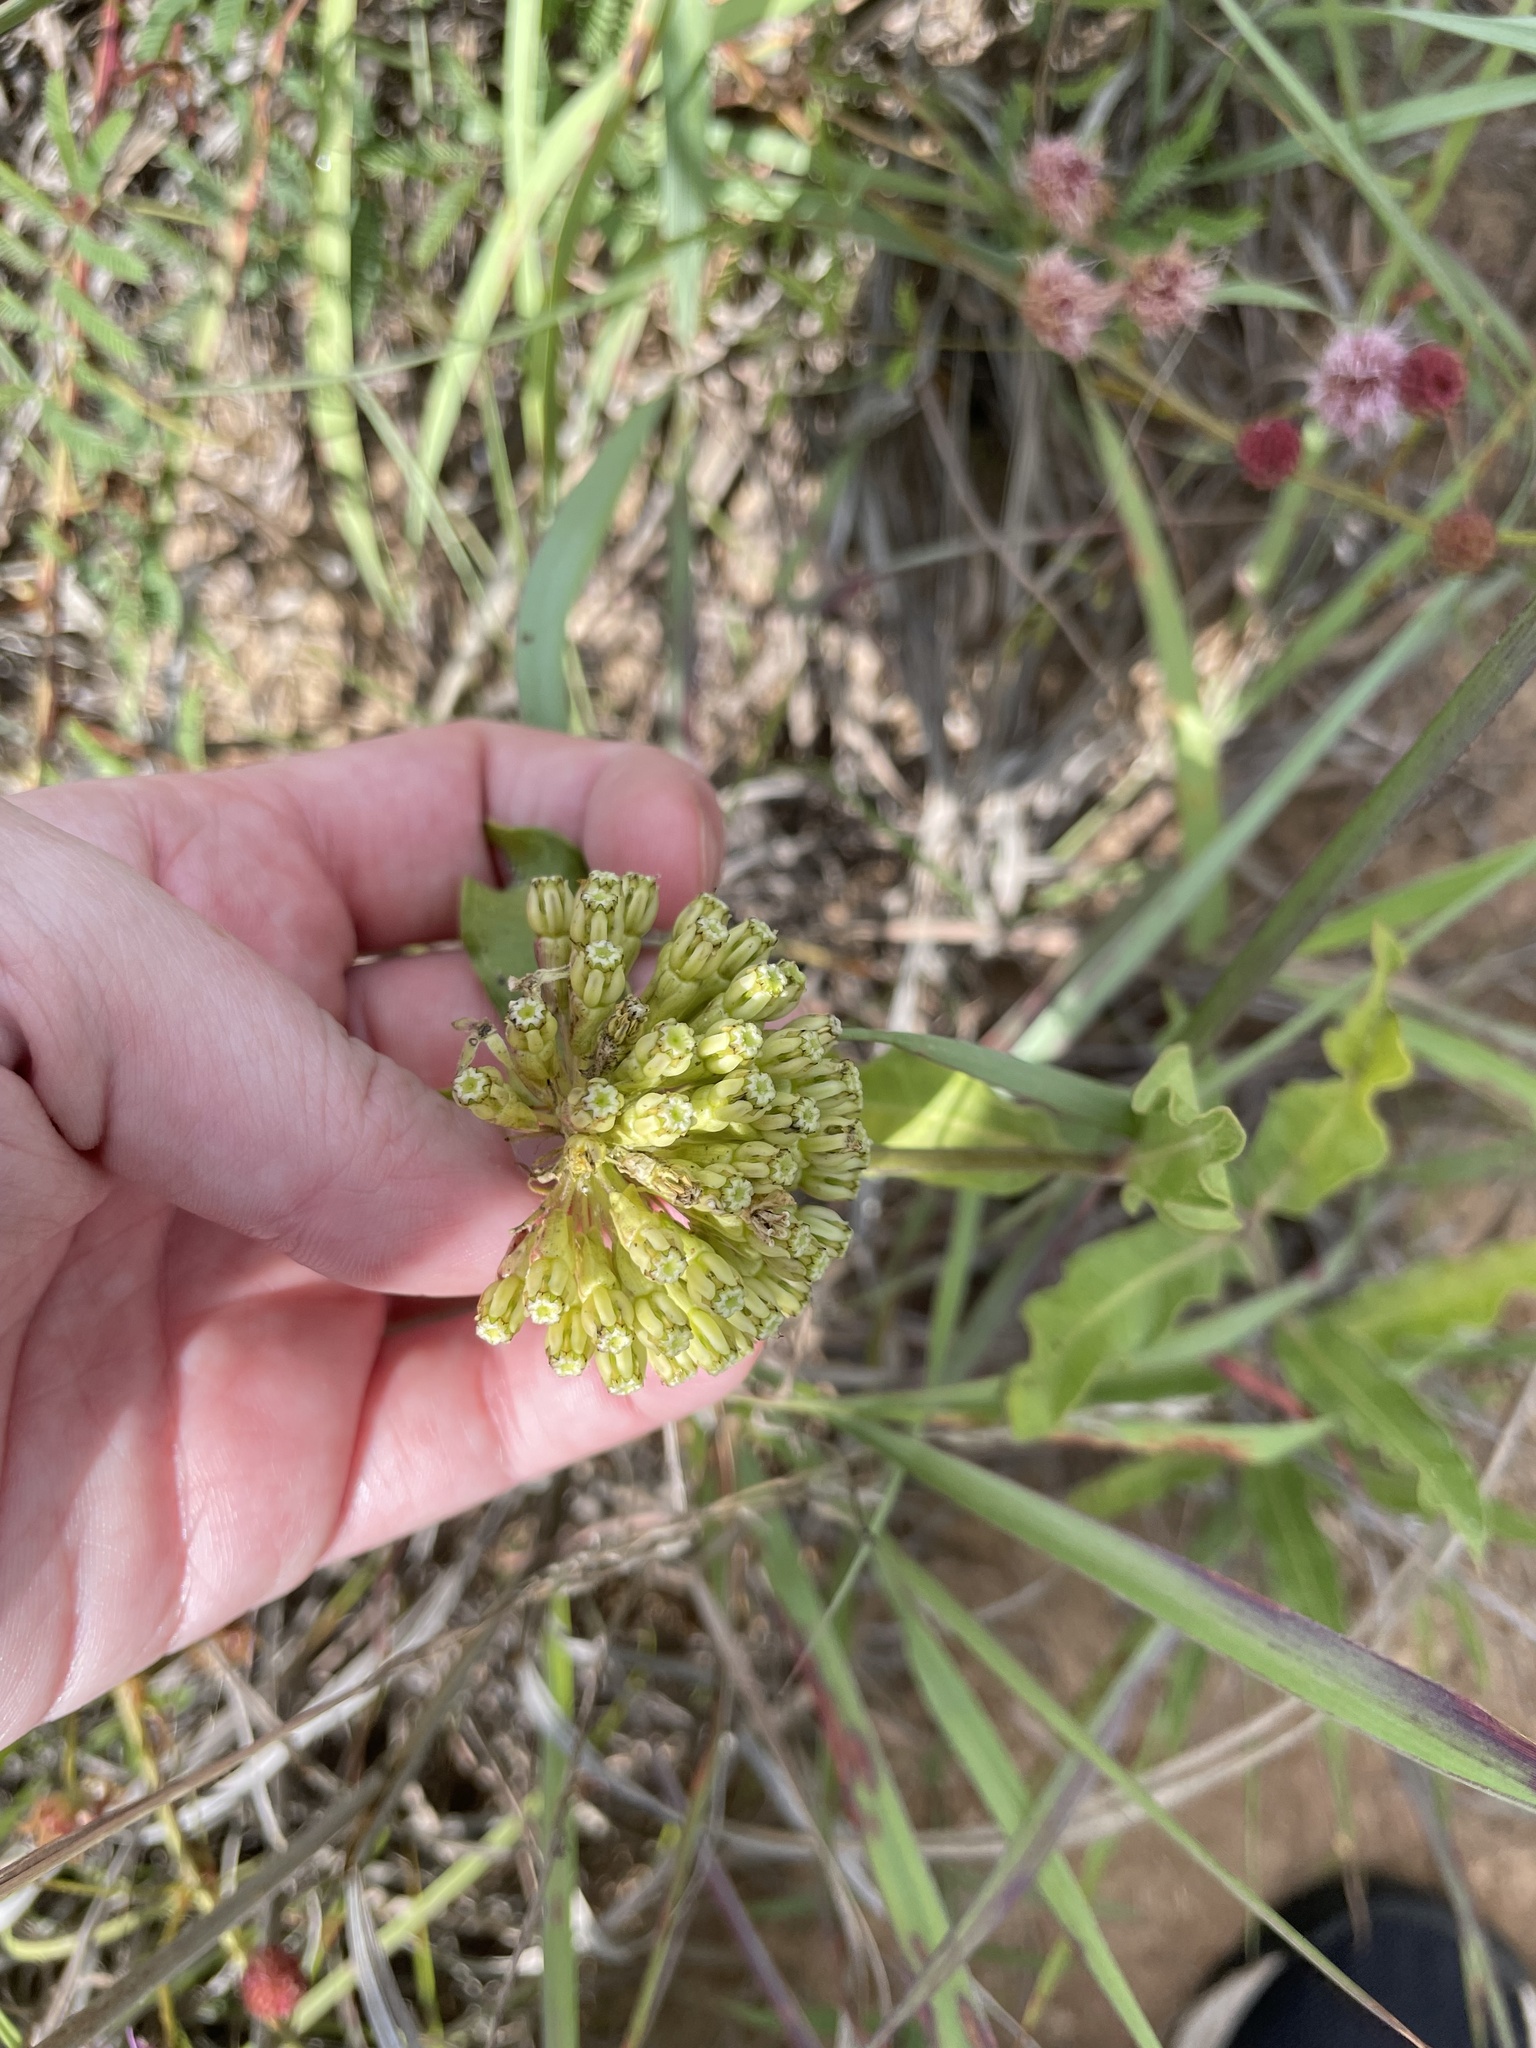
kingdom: Plantae
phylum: Tracheophyta
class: Magnoliopsida
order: Gentianales
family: Apocynaceae
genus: Asclepias
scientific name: Asclepias viridiflora
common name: Green comet milkweed
